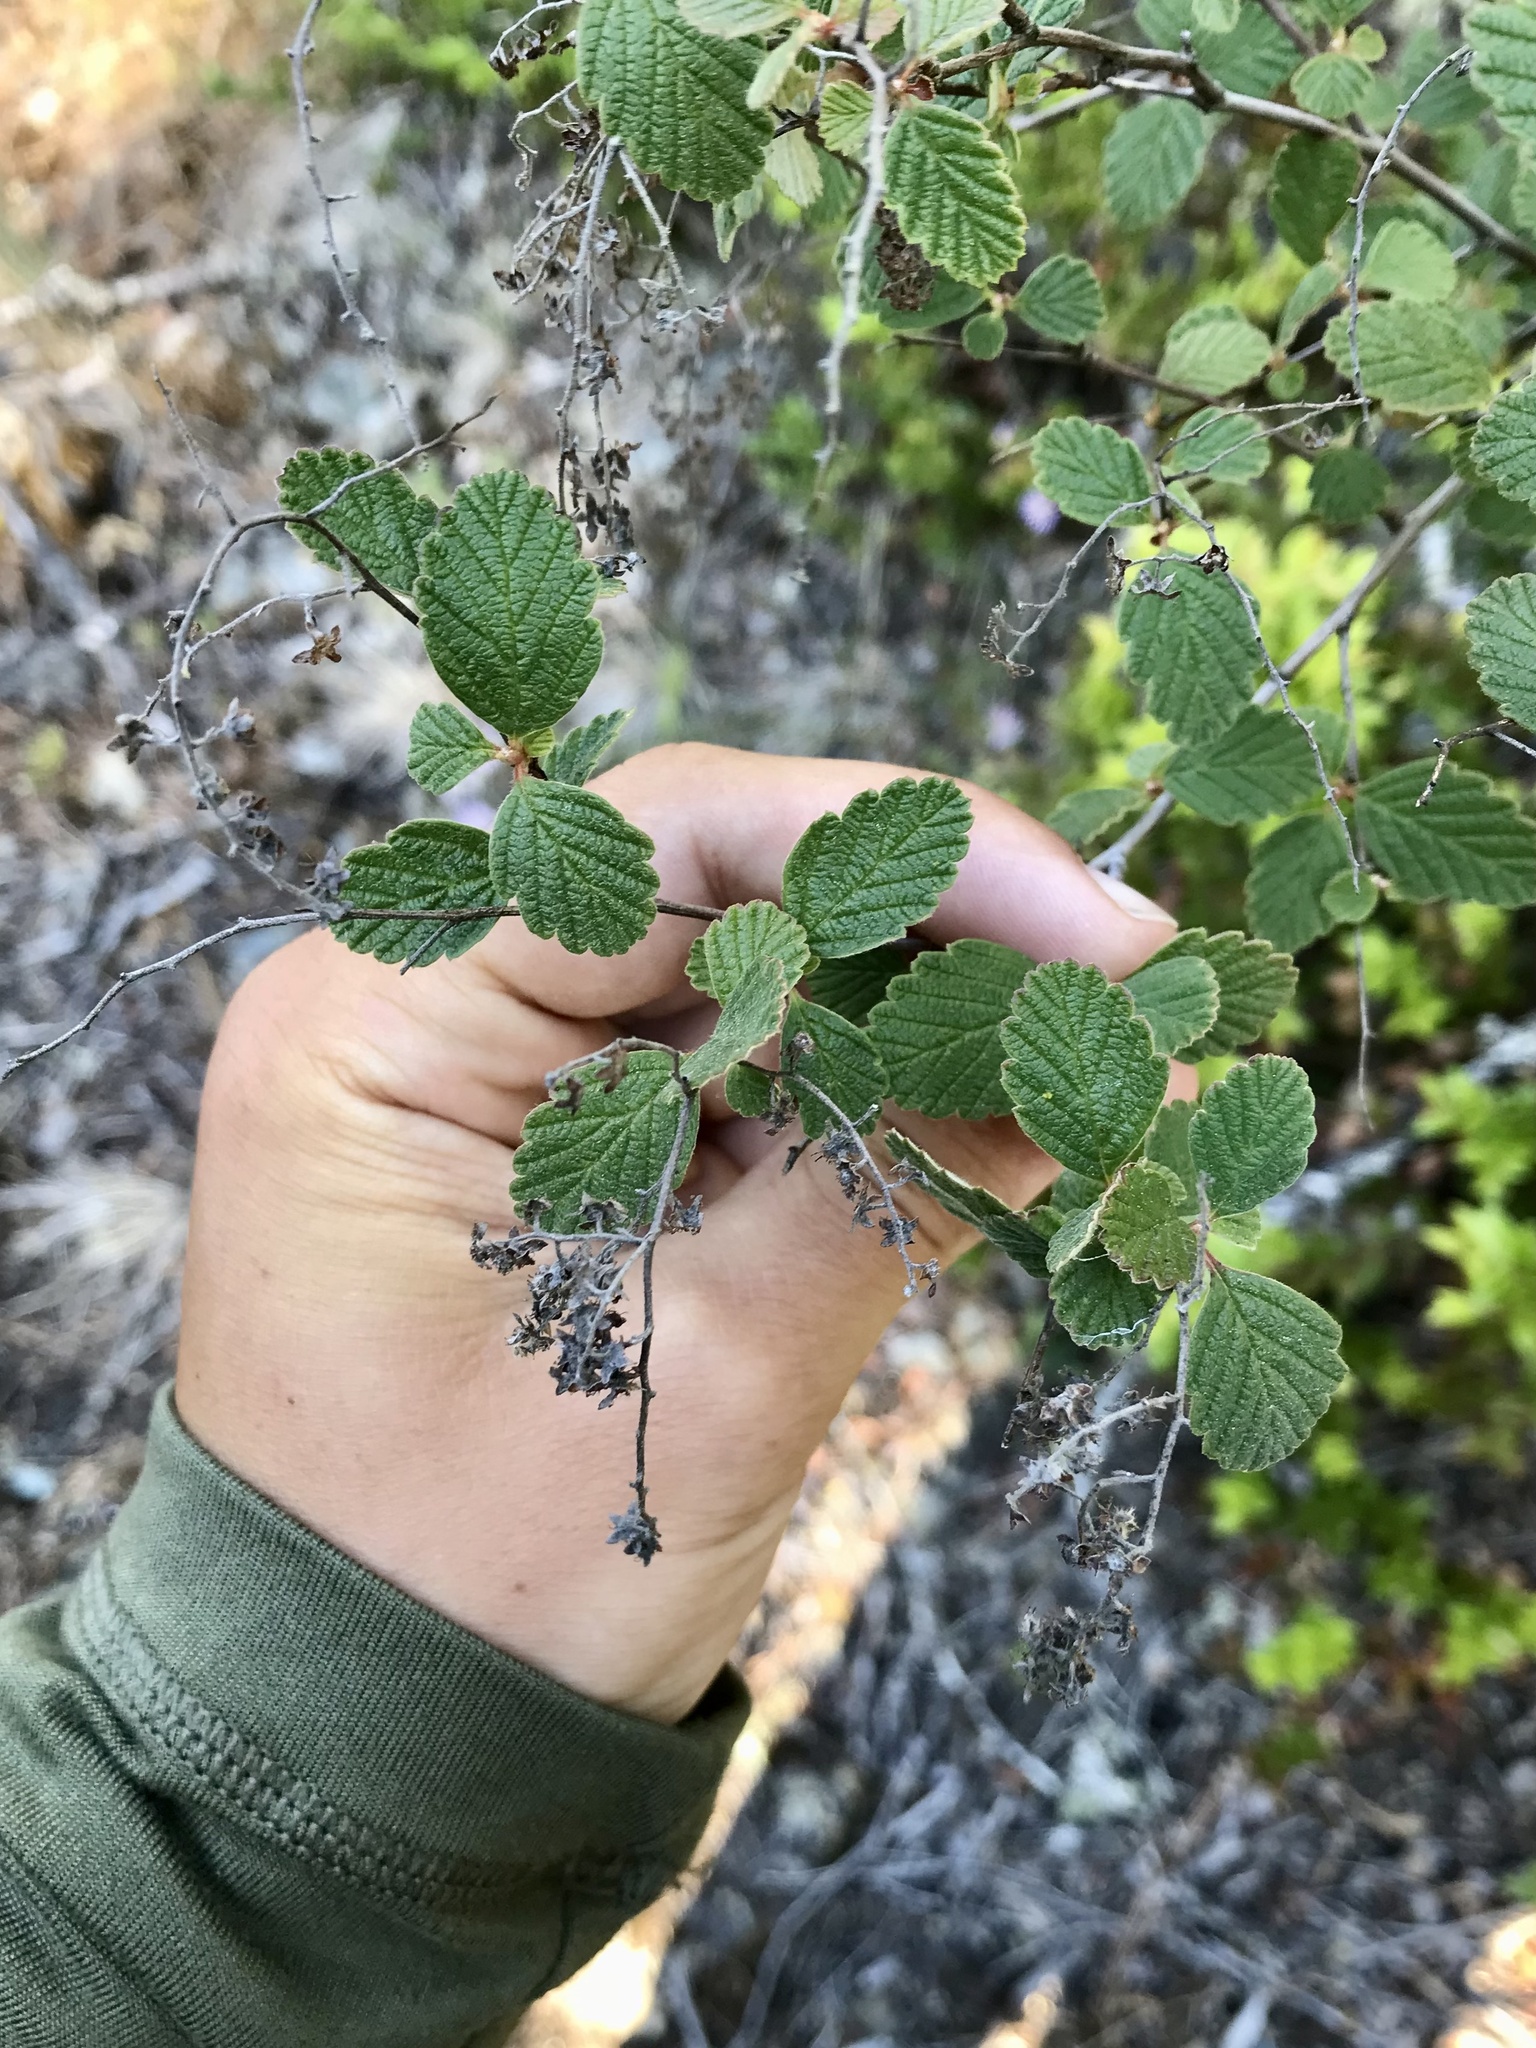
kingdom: Plantae
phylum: Tracheophyta
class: Magnoliopsida
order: Rosales
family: Rosaceae
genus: Holodiscus
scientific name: Holodiscus discolor
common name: Oceanspray
